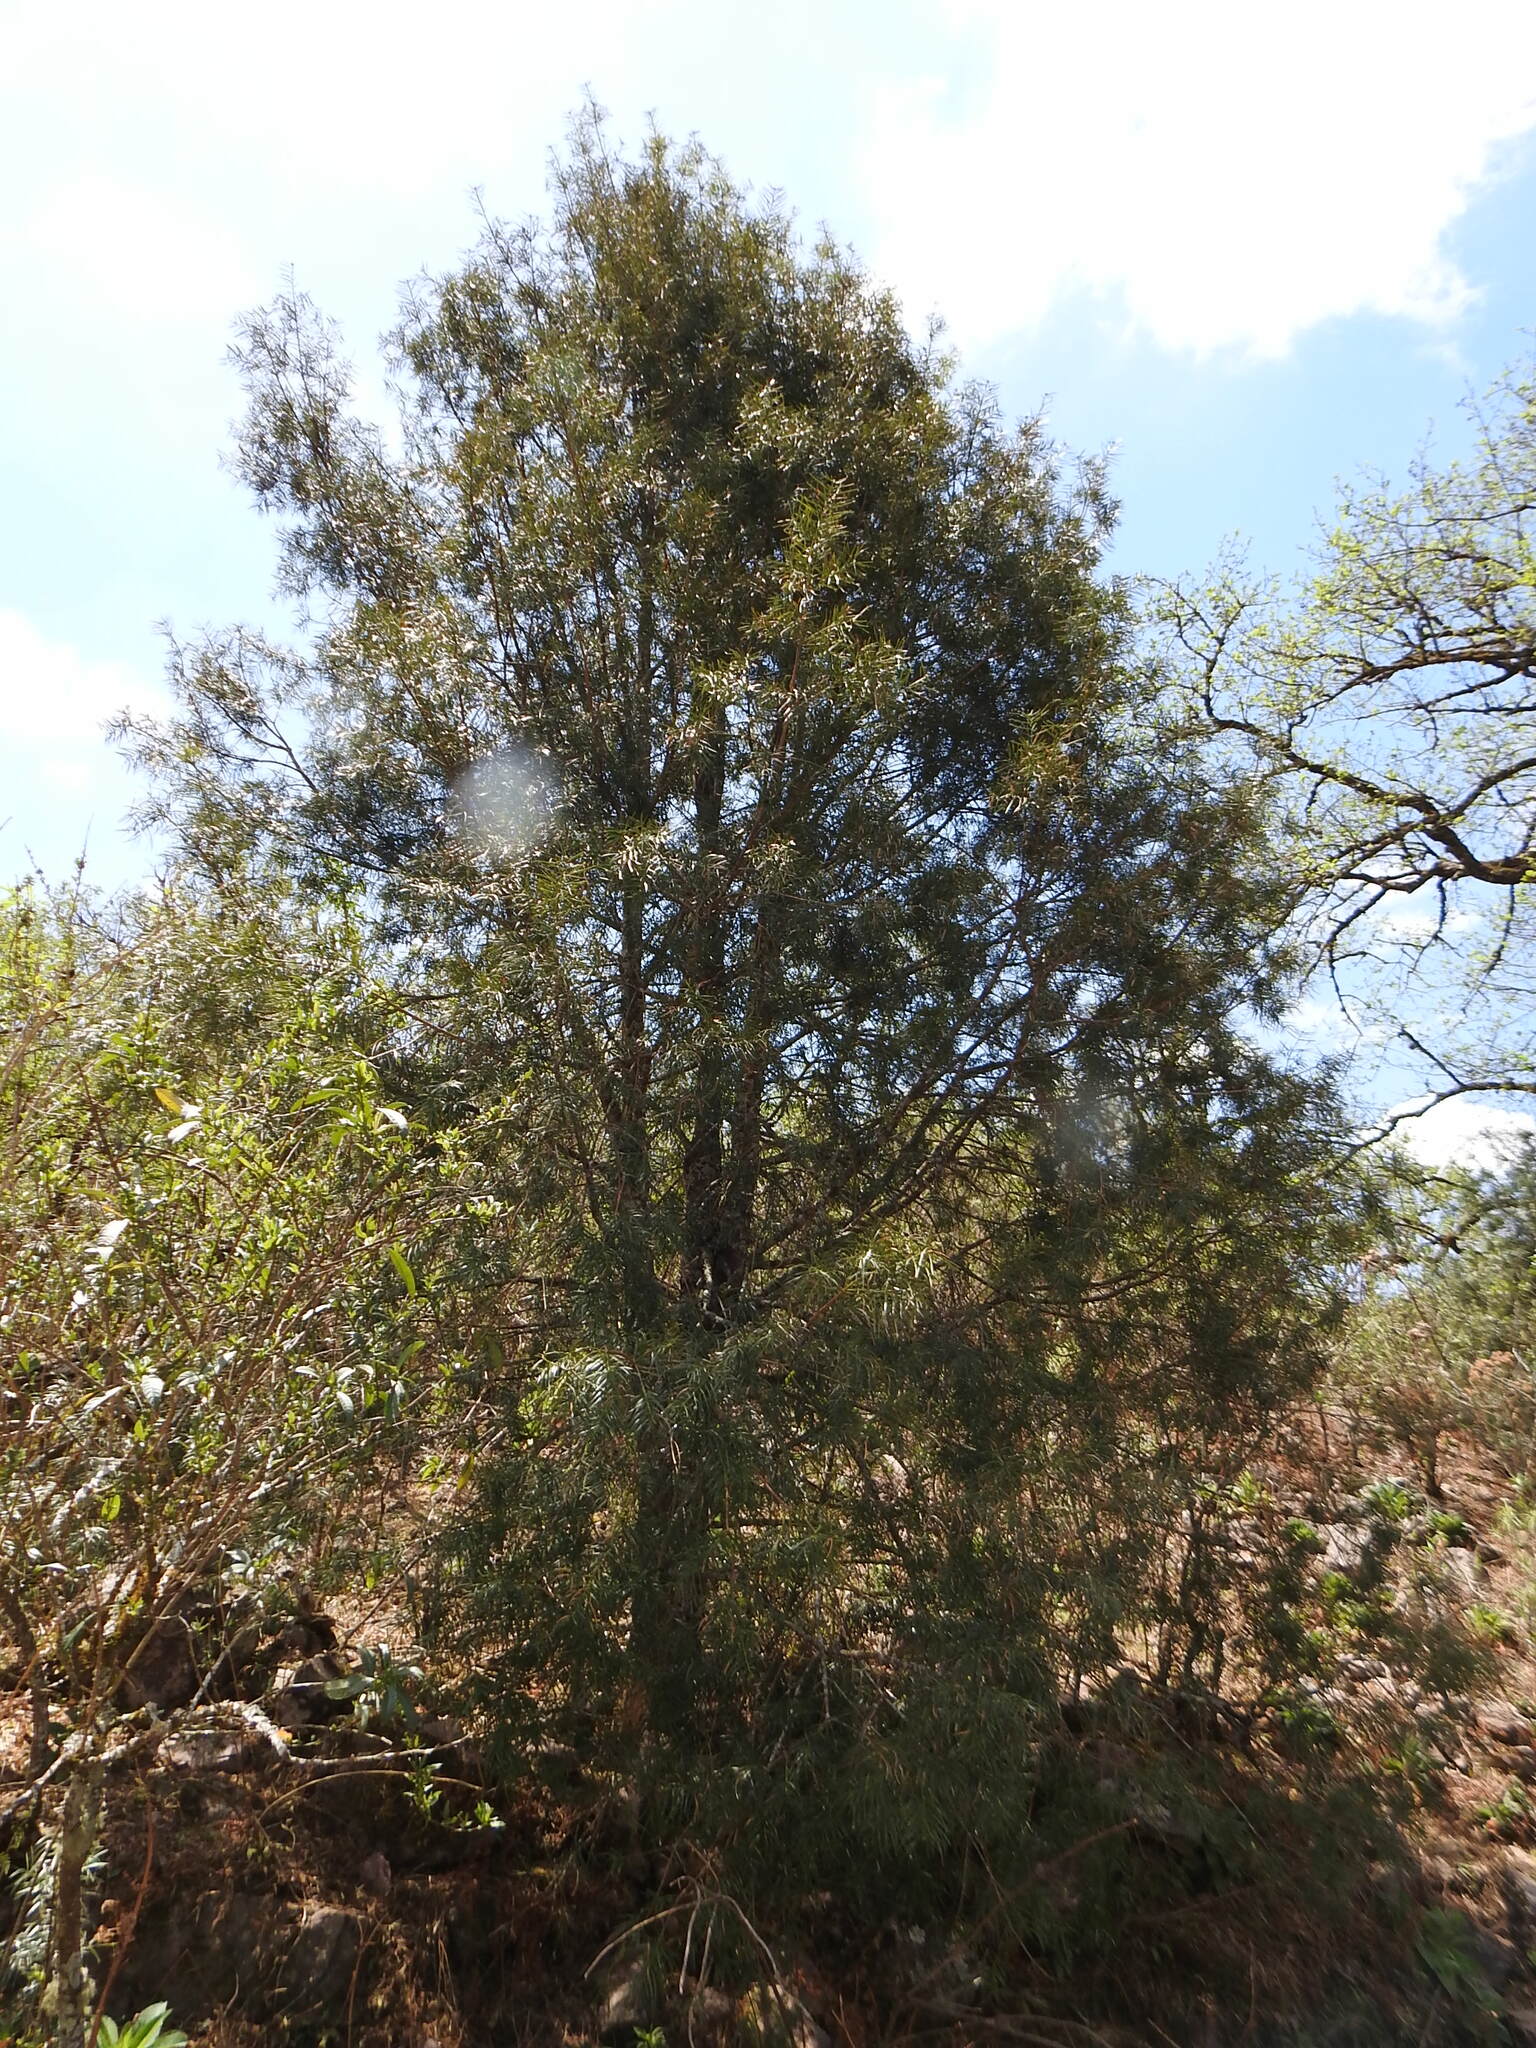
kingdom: Plantae
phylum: Tracheophyta
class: Pinopsida
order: Pinales
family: Podocarpaceae
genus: Podocarpus
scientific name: Podocarpus parlatorei
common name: Pino blanco
